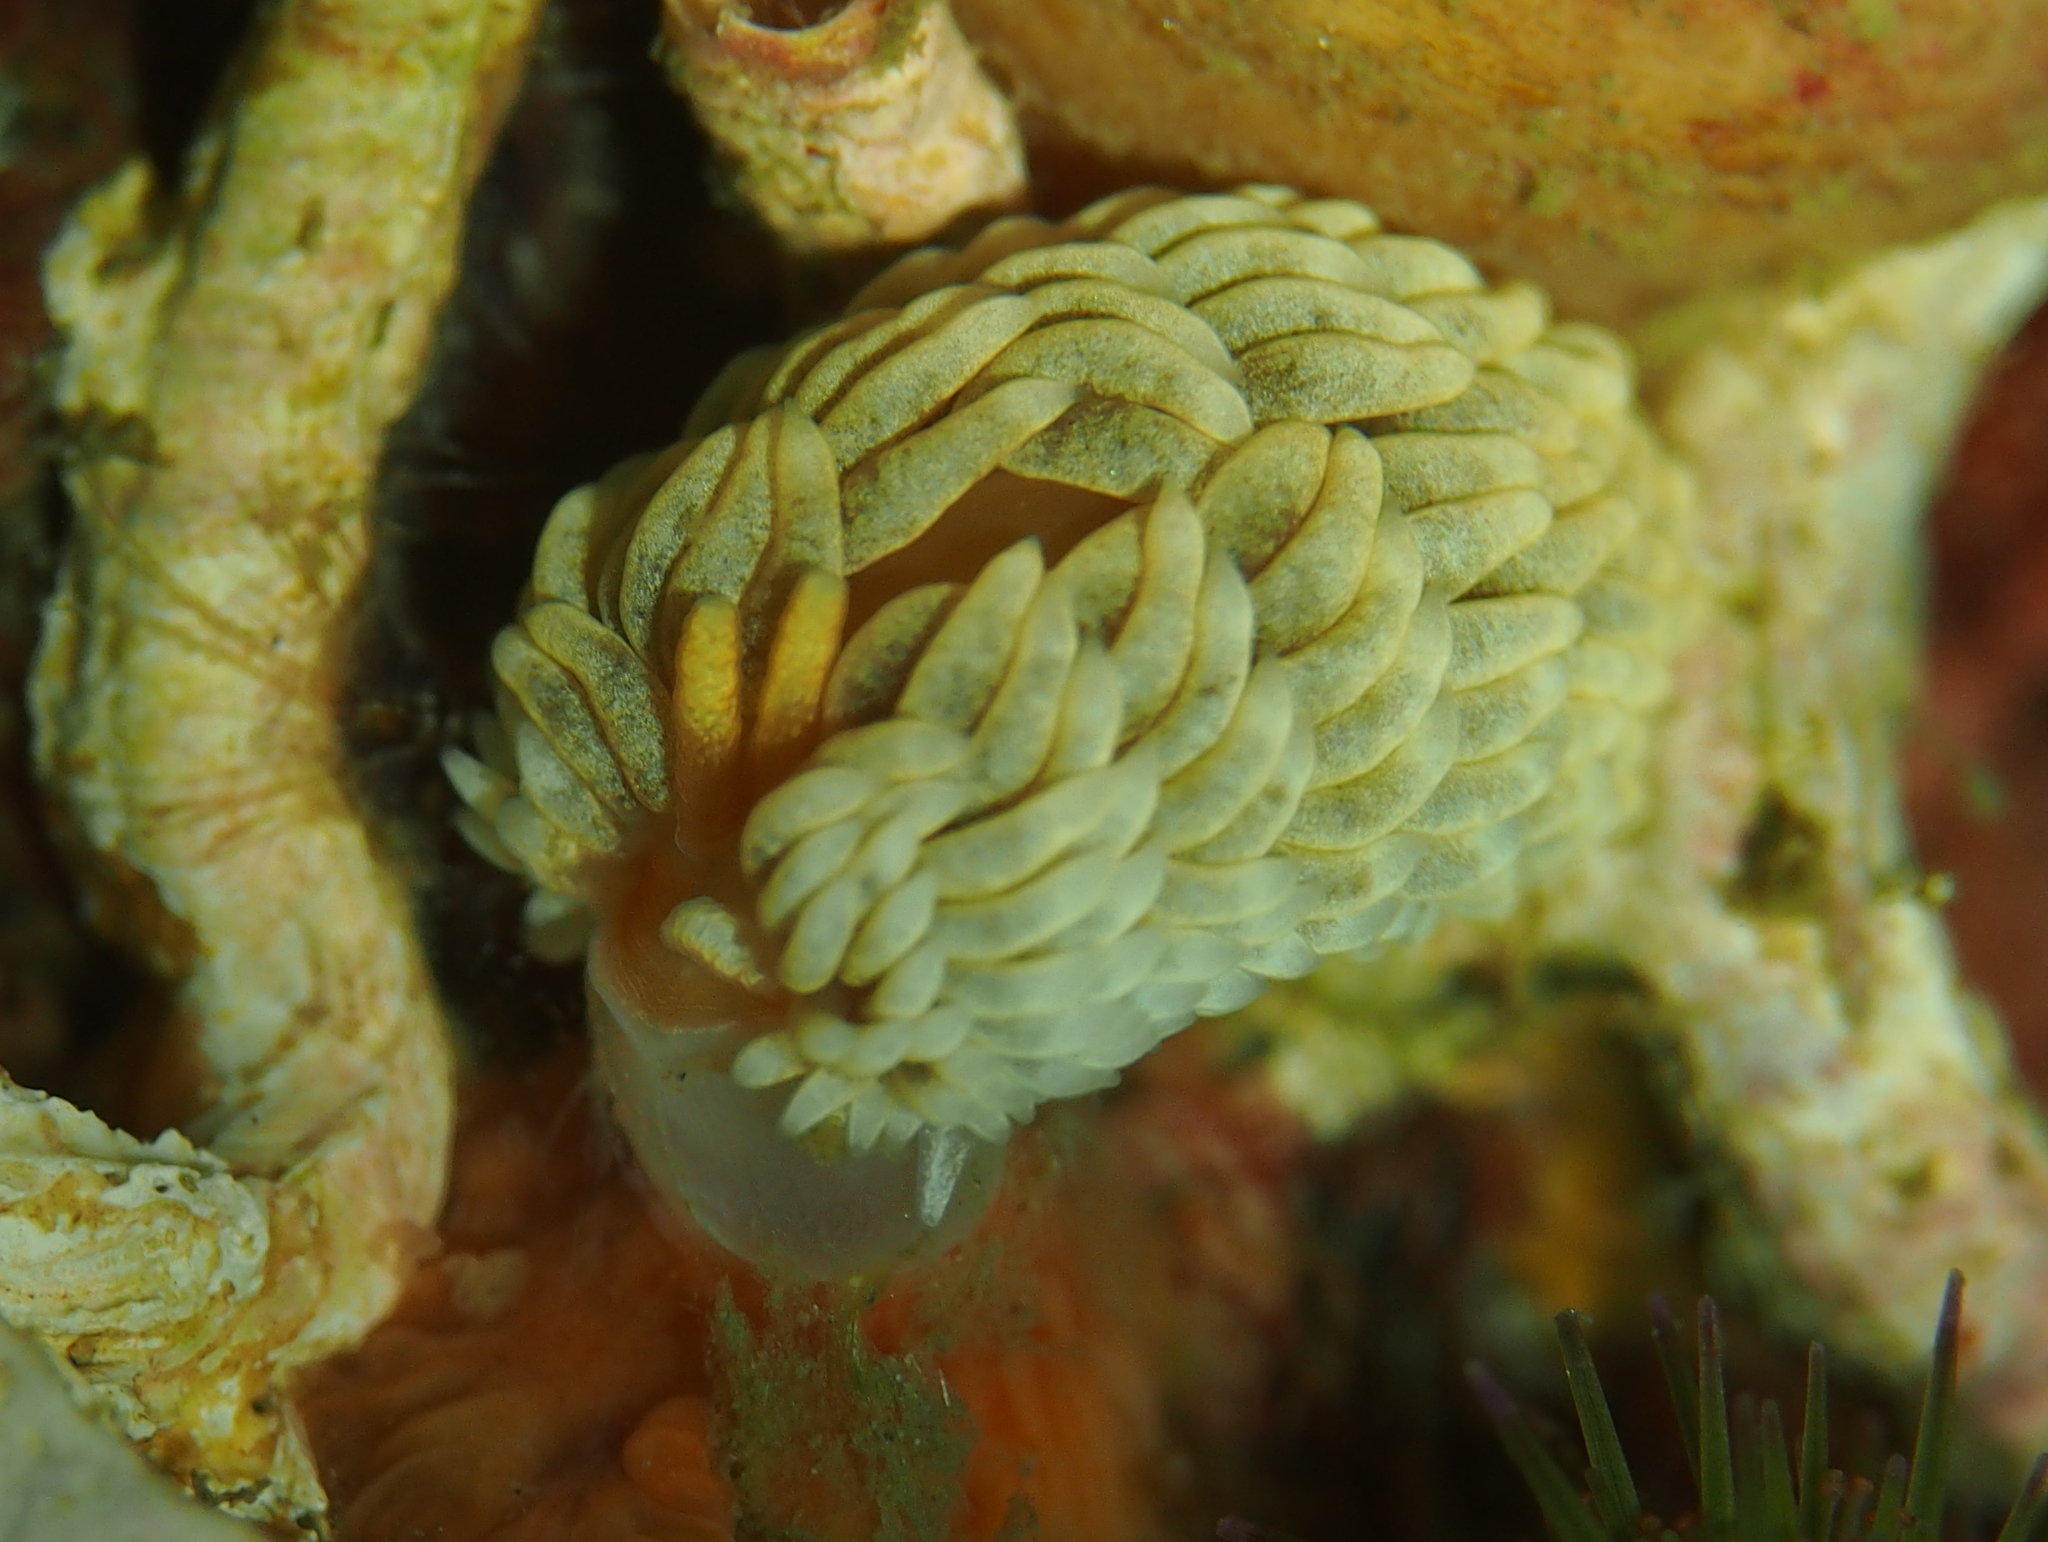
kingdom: Animalia
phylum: Mollusca
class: Gastropoda
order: Nudibranchia
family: Aeolidiidae
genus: Aeolidiella
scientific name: Aeolidiella glauca
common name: Orange-brown aeolid
